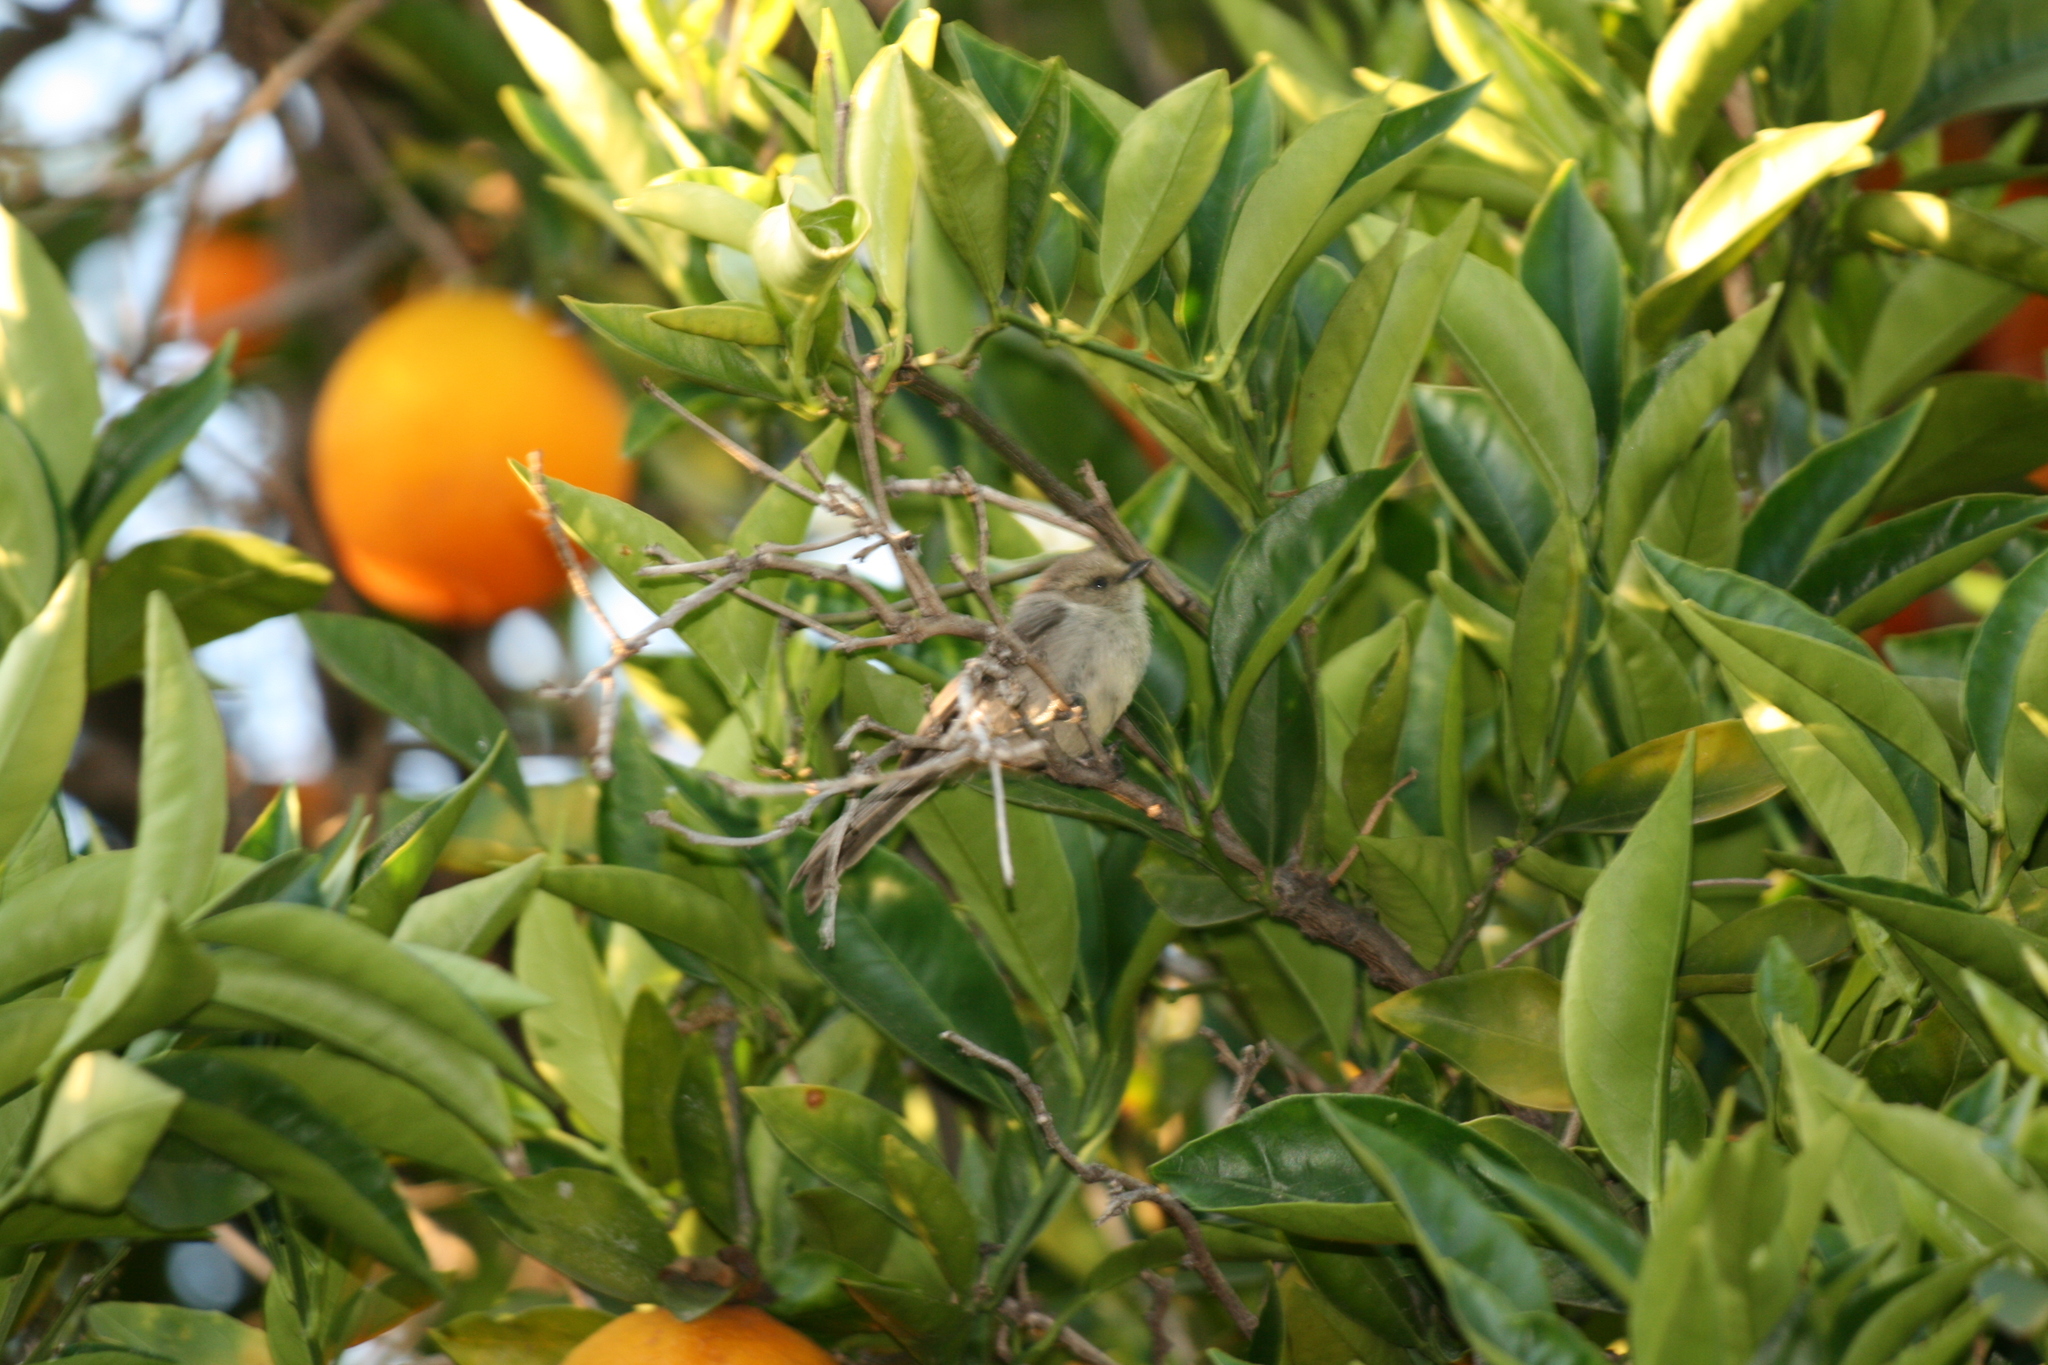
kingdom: Animalia
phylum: Chordata
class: Aves
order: Passeriformes
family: Aegithalidae
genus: Psaltriparus
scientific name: Psaltriparus minimus
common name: American bushtit
